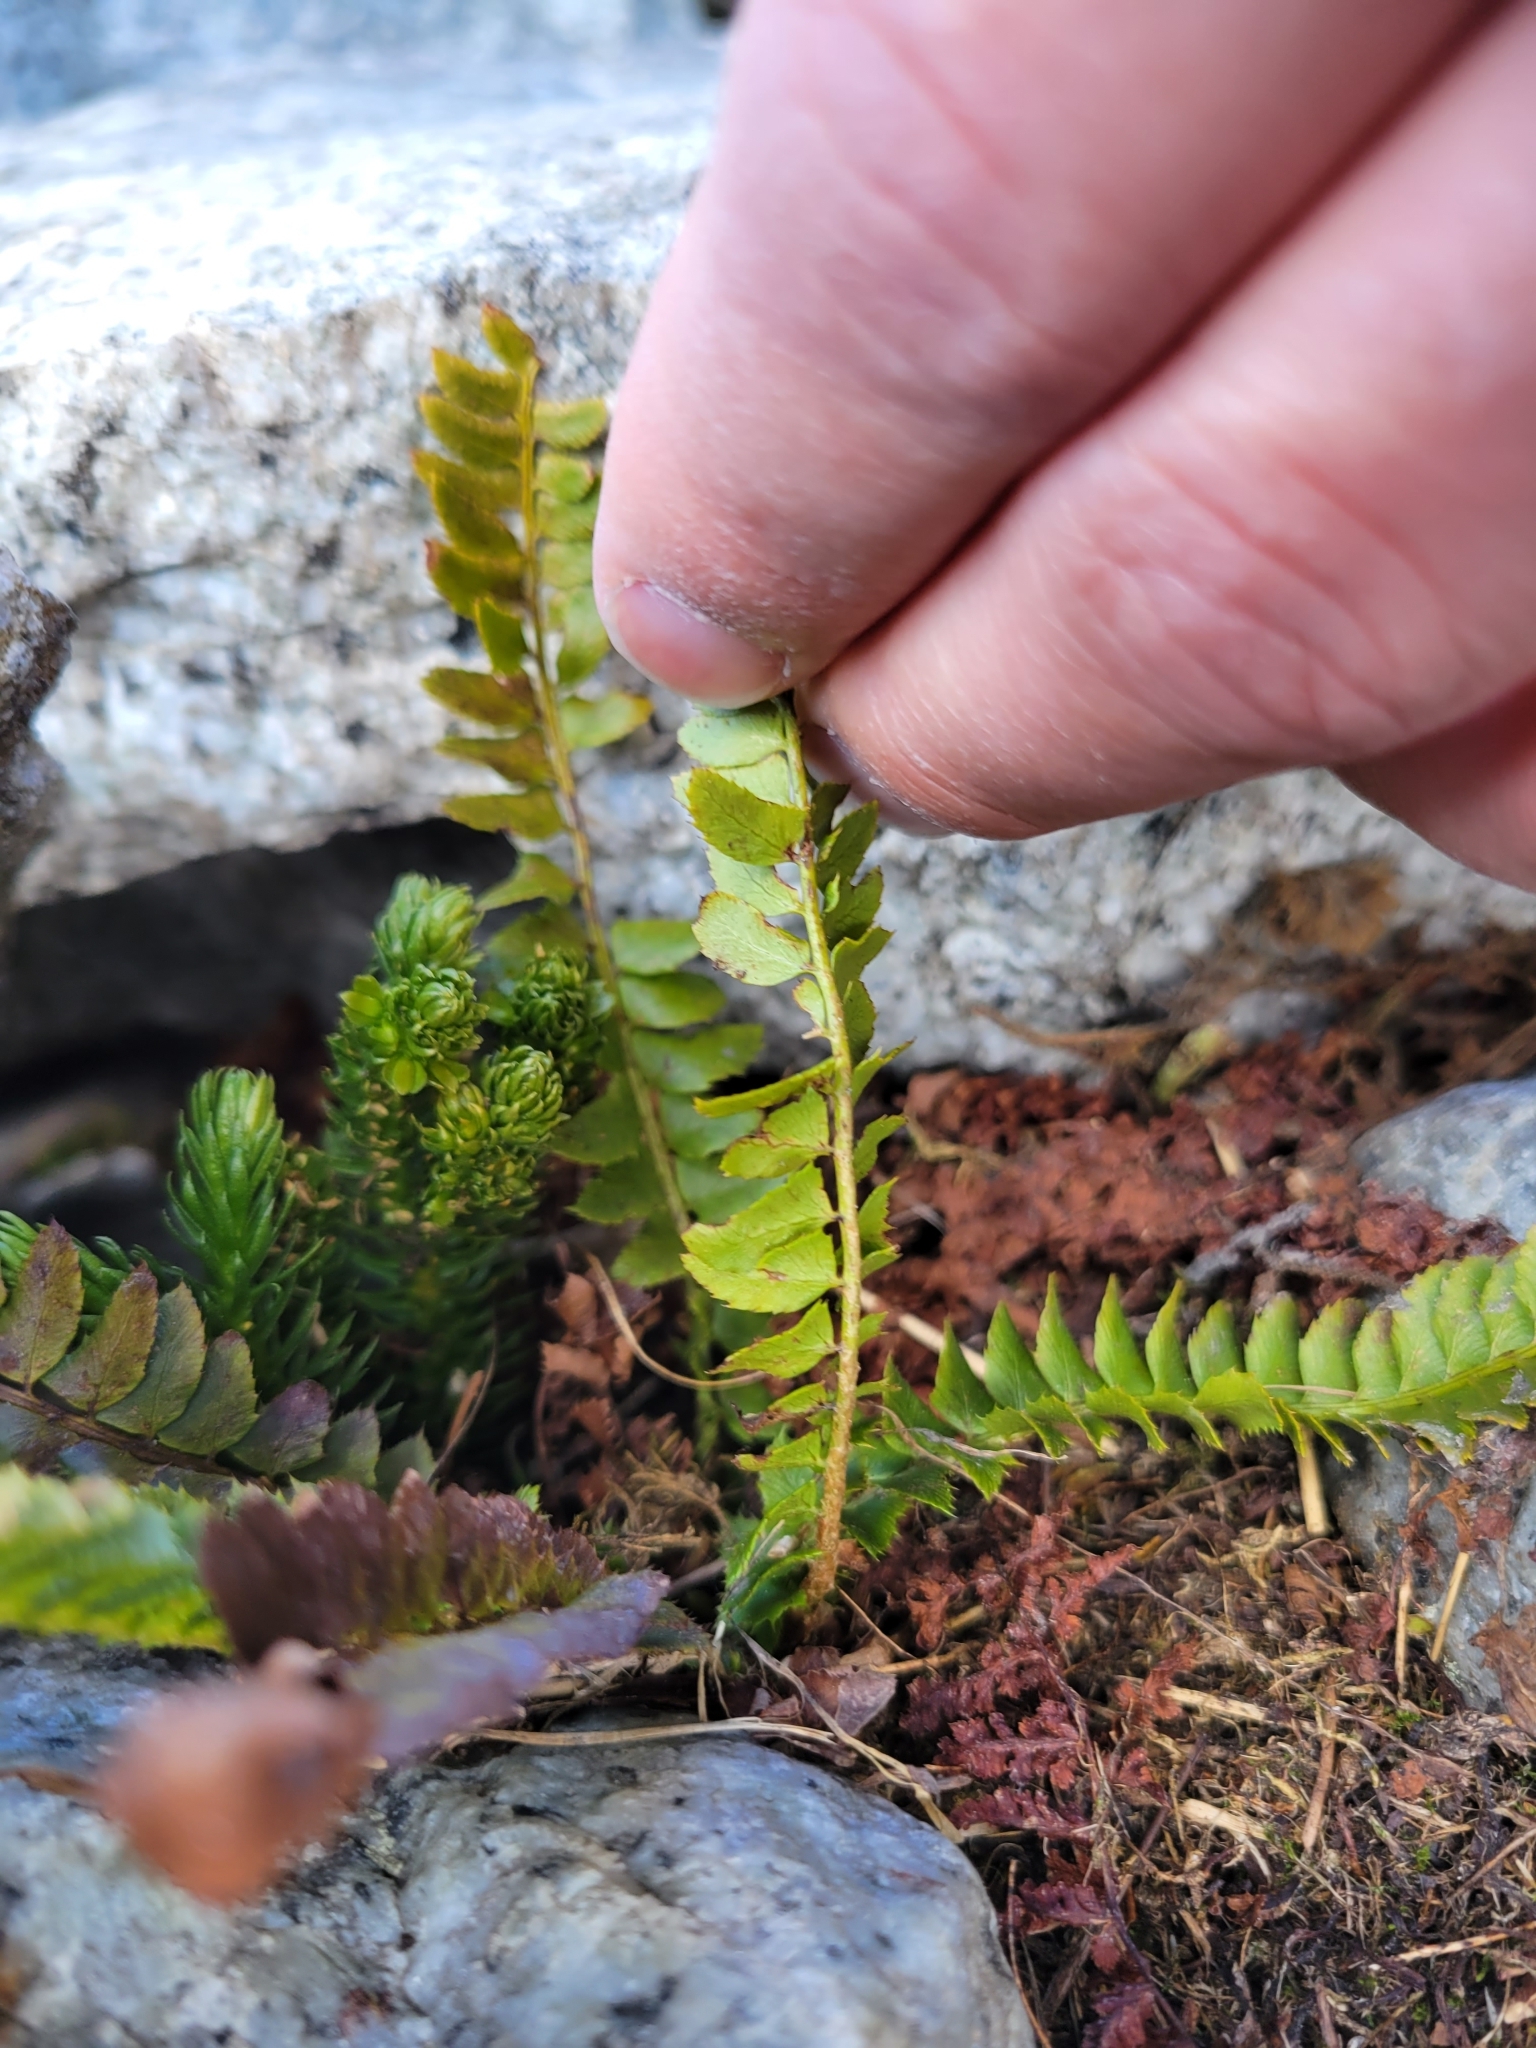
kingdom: Plantae
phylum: Tracheophyta
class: Polypodiopsida
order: Polypodiales
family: Dryopteridaceae
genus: Polystichum
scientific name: Polystichum lonchitis
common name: Holly fern
